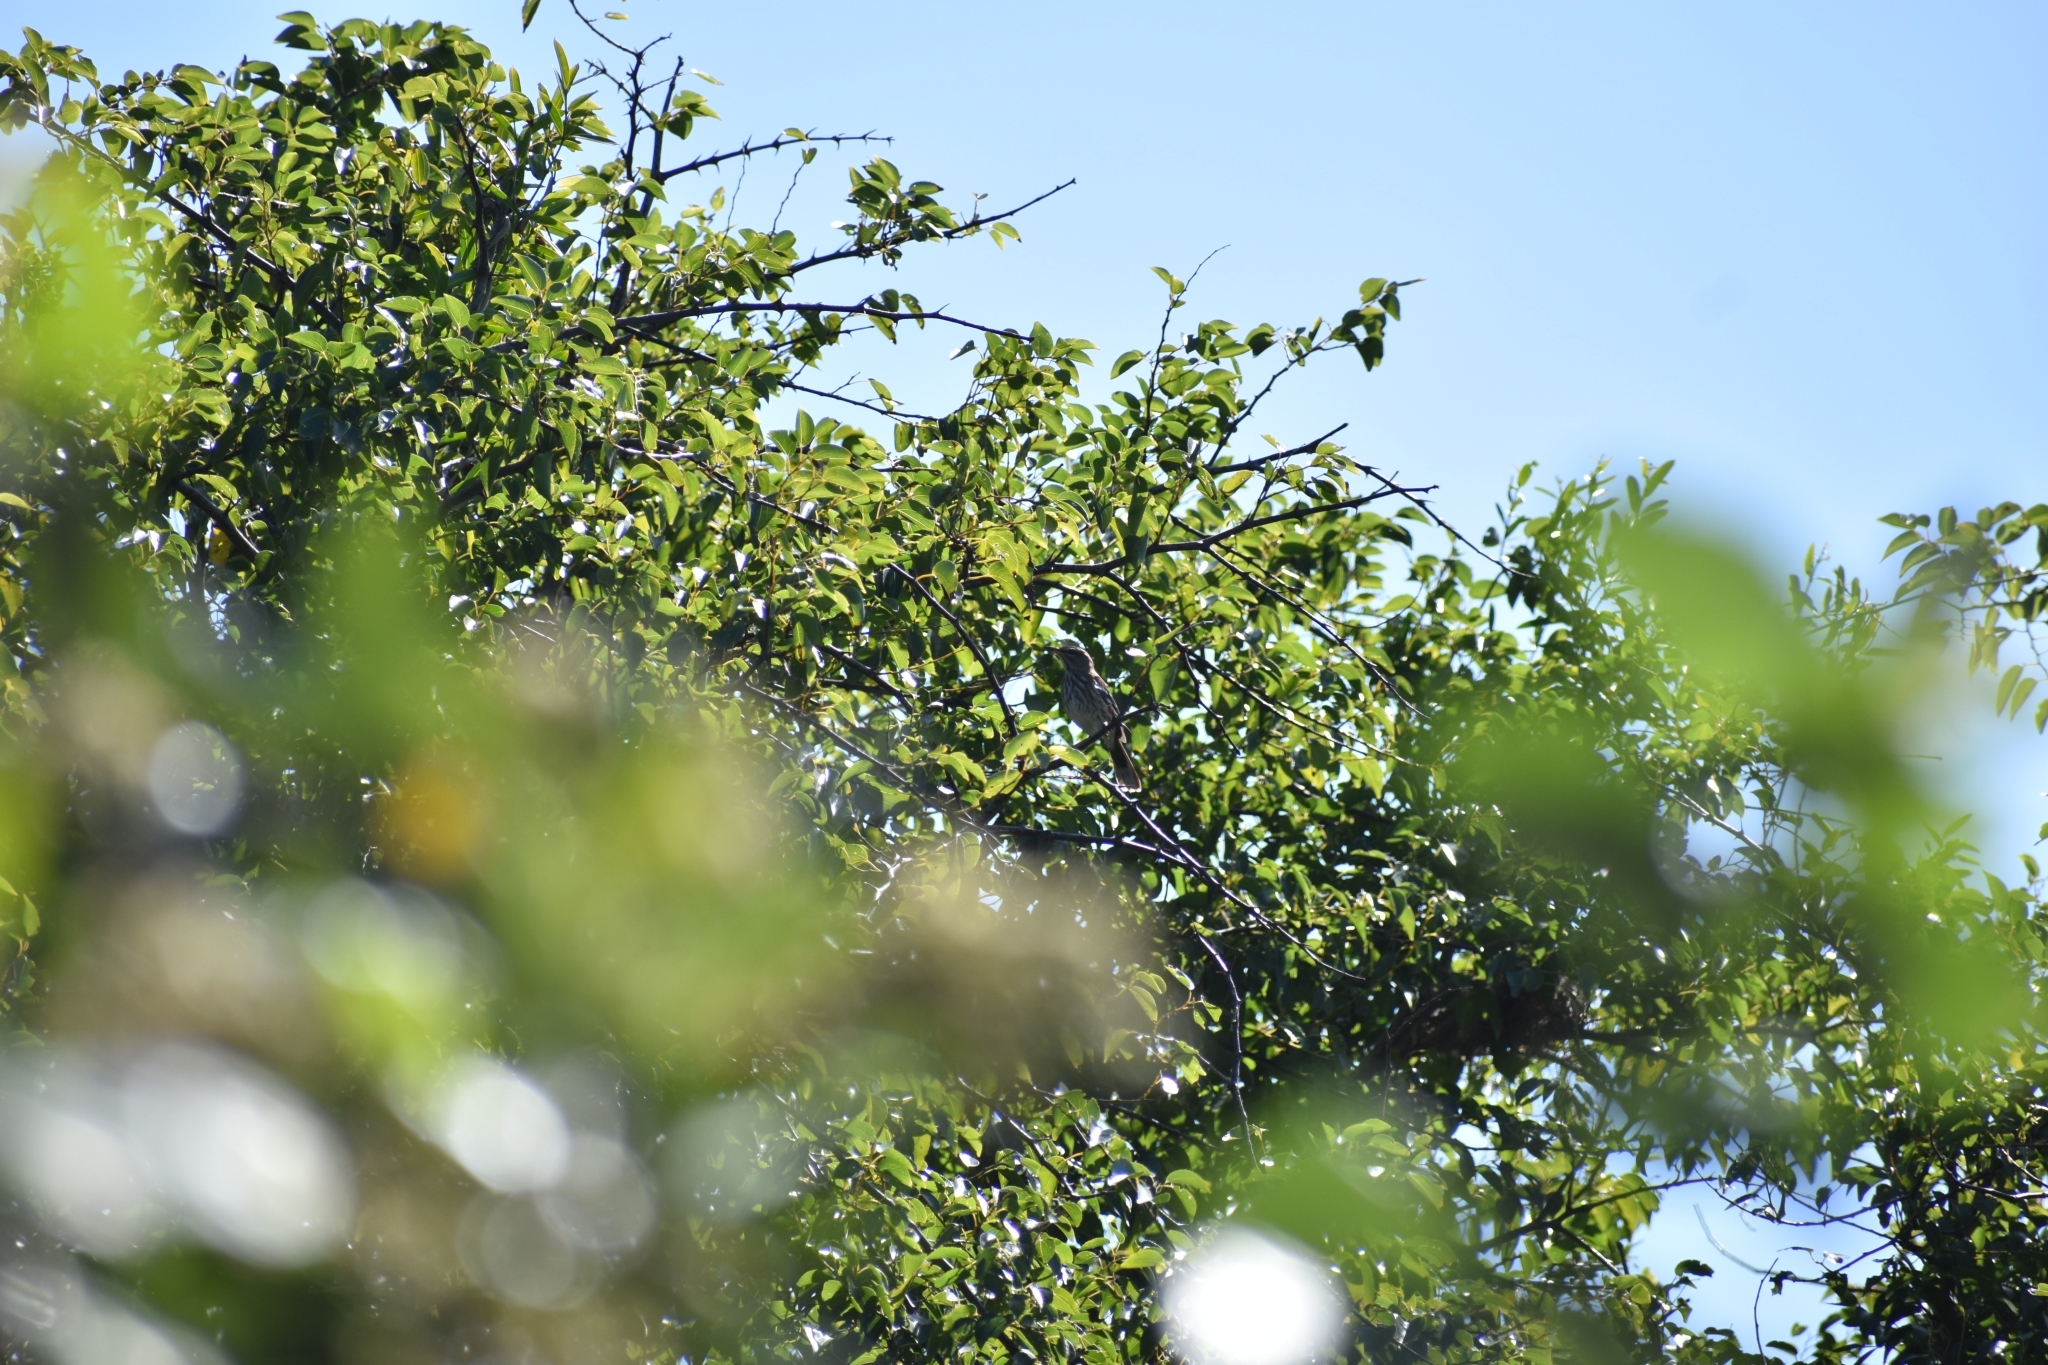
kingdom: Animalia
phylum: Chordata
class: Aves
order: Passeriformes
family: Muscicapidae
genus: Erythropygia
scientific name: Erythropygia leucophrys
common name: White-browed scrub robin
